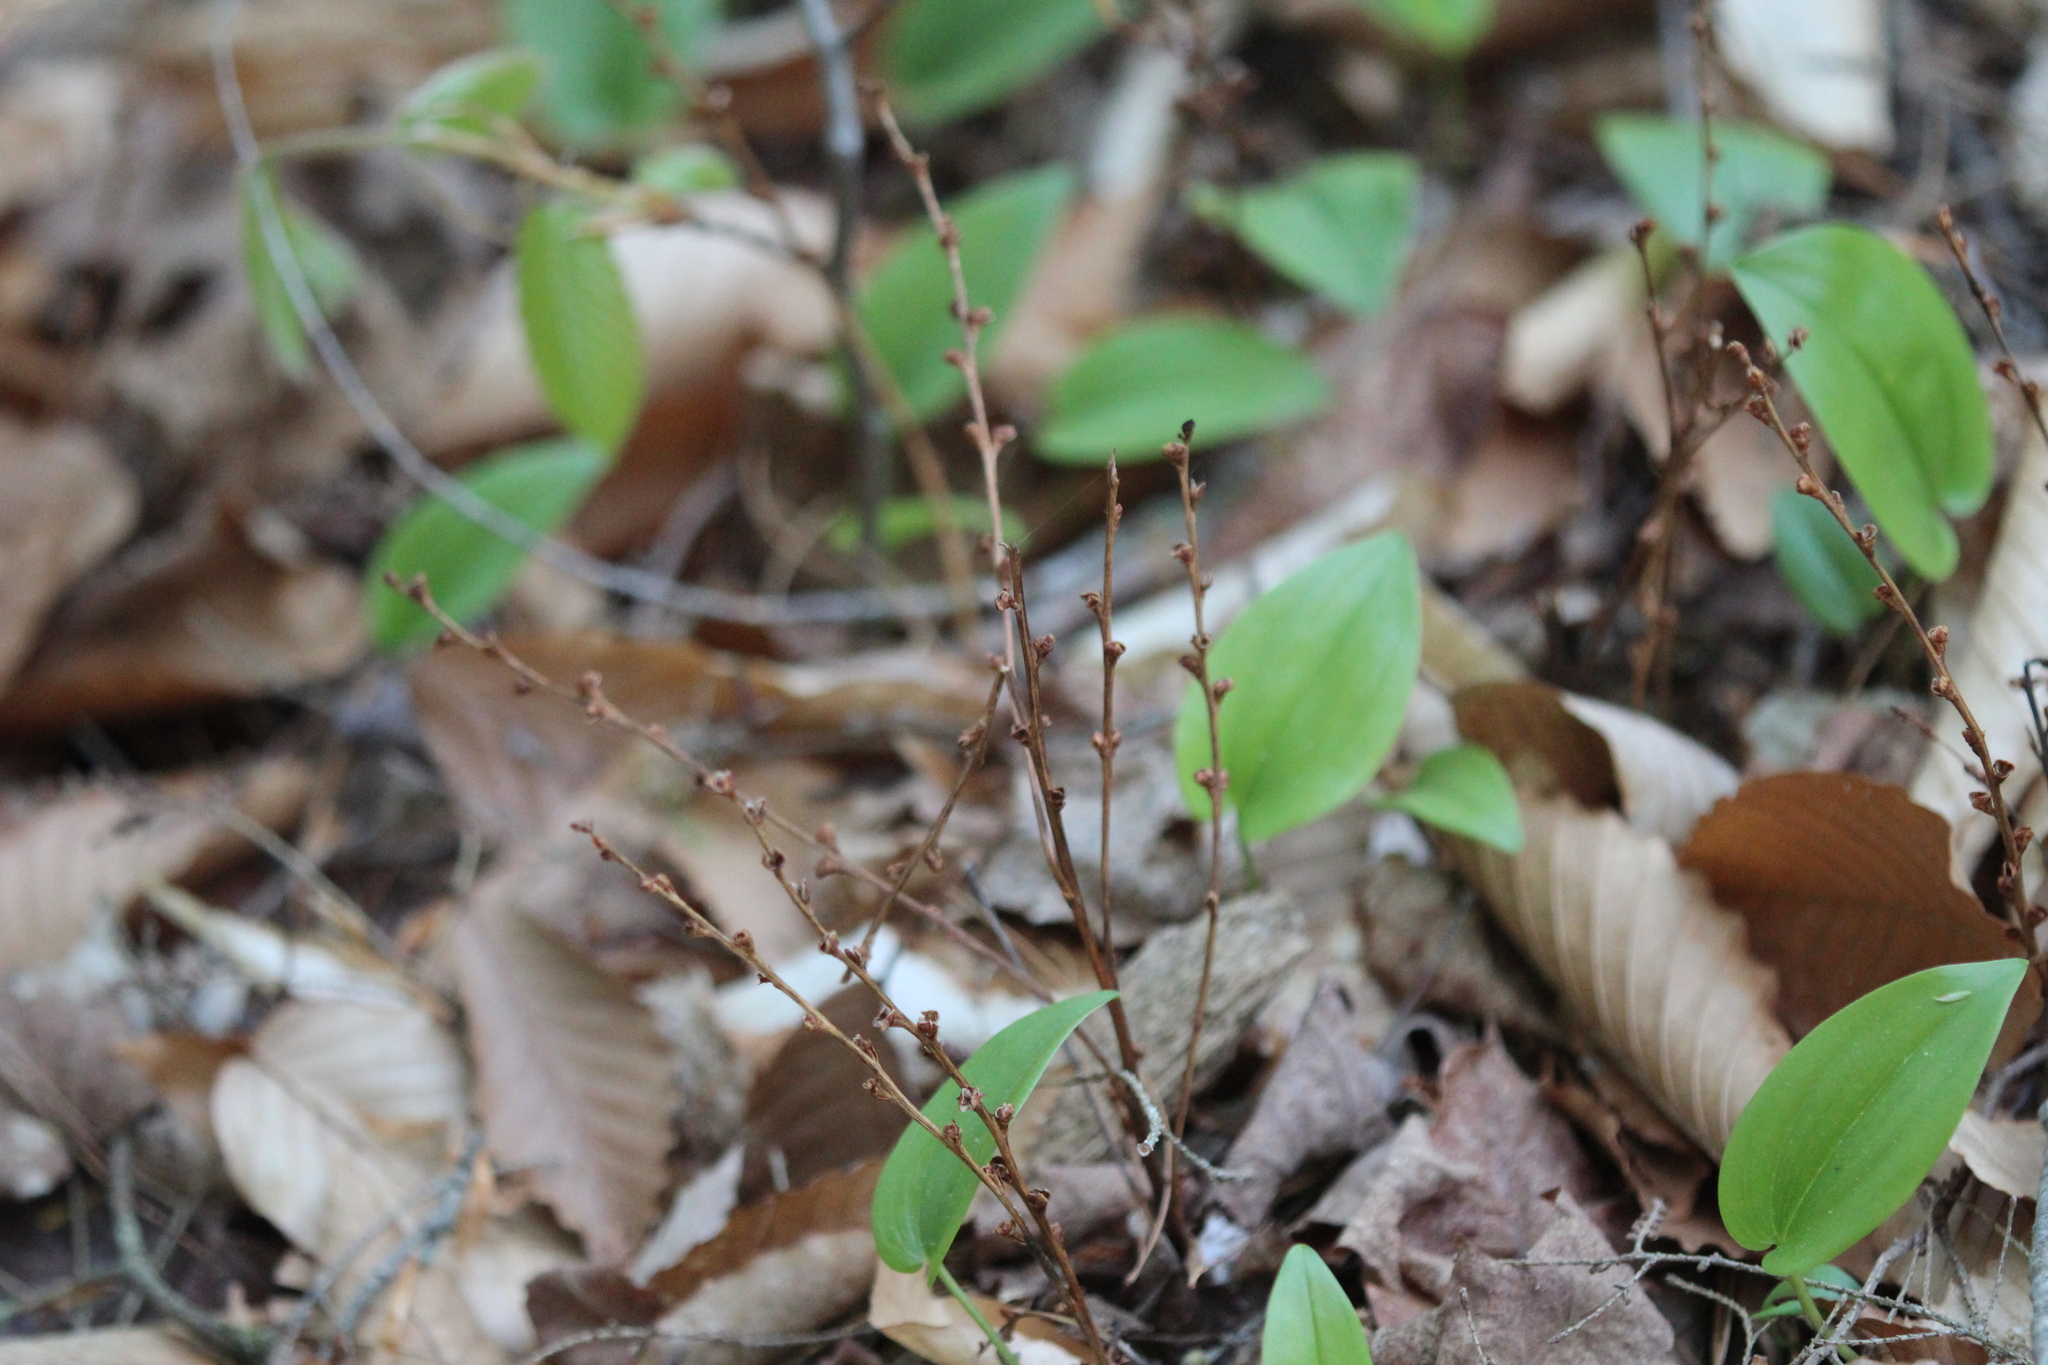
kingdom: Plantae
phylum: Tracheophyta
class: Magnoliopsida
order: Lamiales
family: Orobanchaceae
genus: Epifagus
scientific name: Epifagus virginiana
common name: Beechdrops
